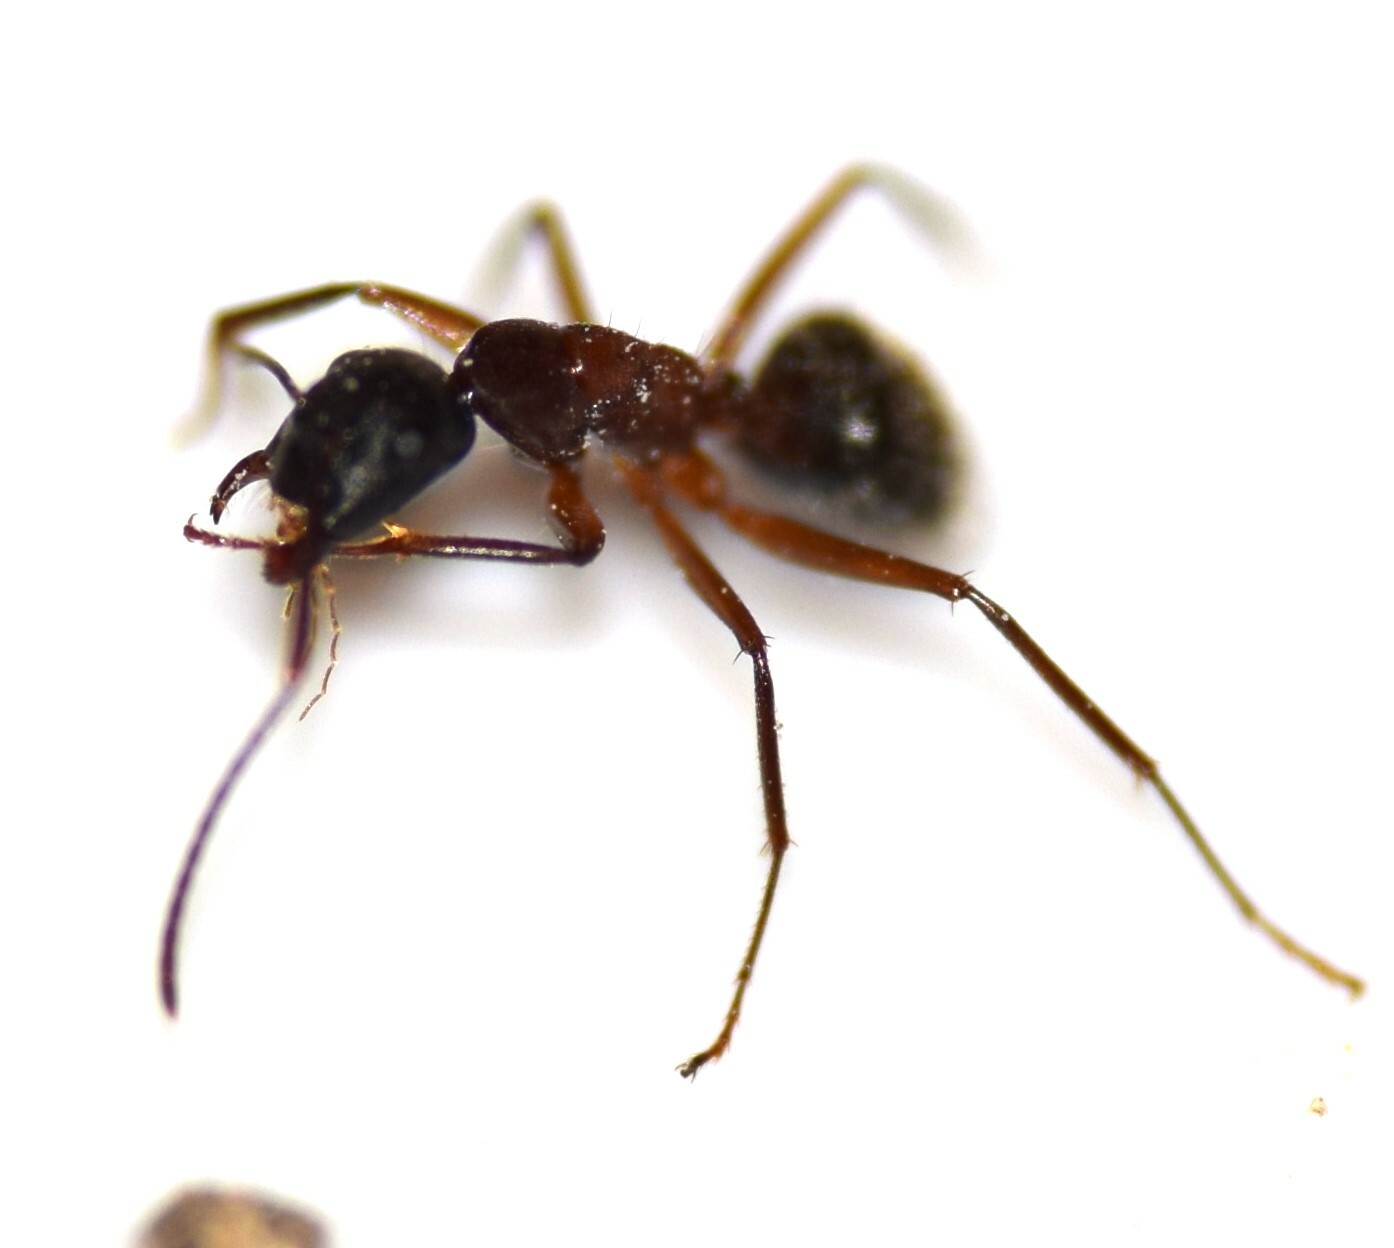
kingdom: Animalia
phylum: Arthropoda
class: Insecta
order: Hymenoptera
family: Formicidae
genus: Camponotus
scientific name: Camponotus chromaiodes
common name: Red carpenter ant
